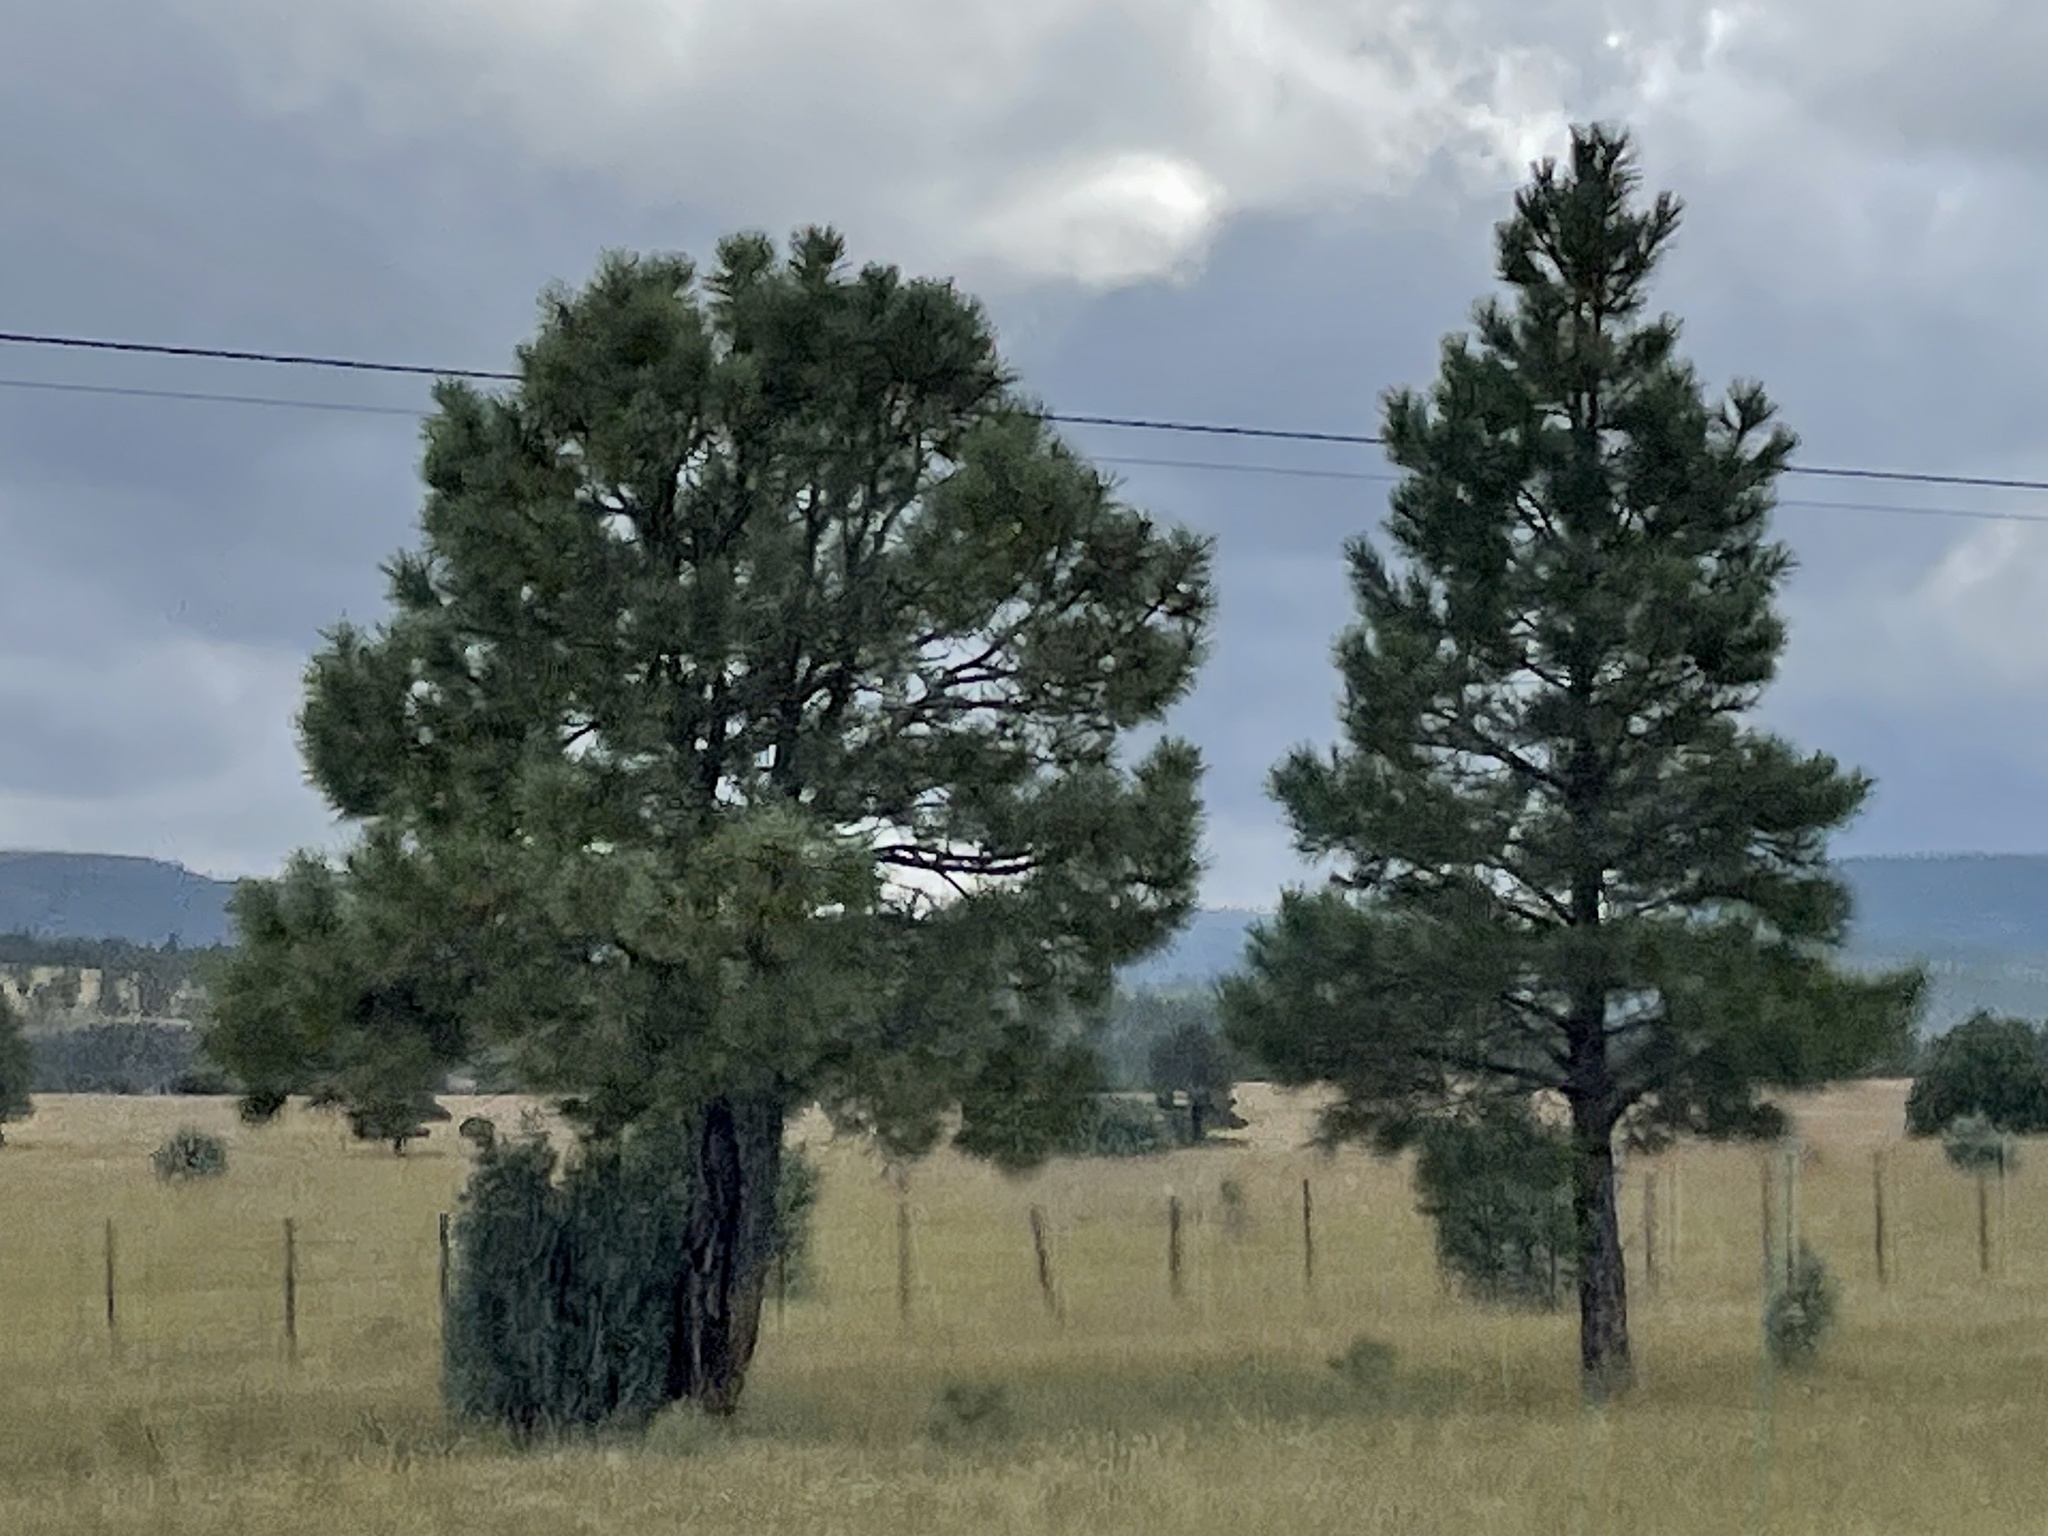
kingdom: Plantae
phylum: Tracheophyta
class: Pinopsida
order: Pinales
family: Pinaceae
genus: Pinus
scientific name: Pinus ponderosa
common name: Western yellow-pine
